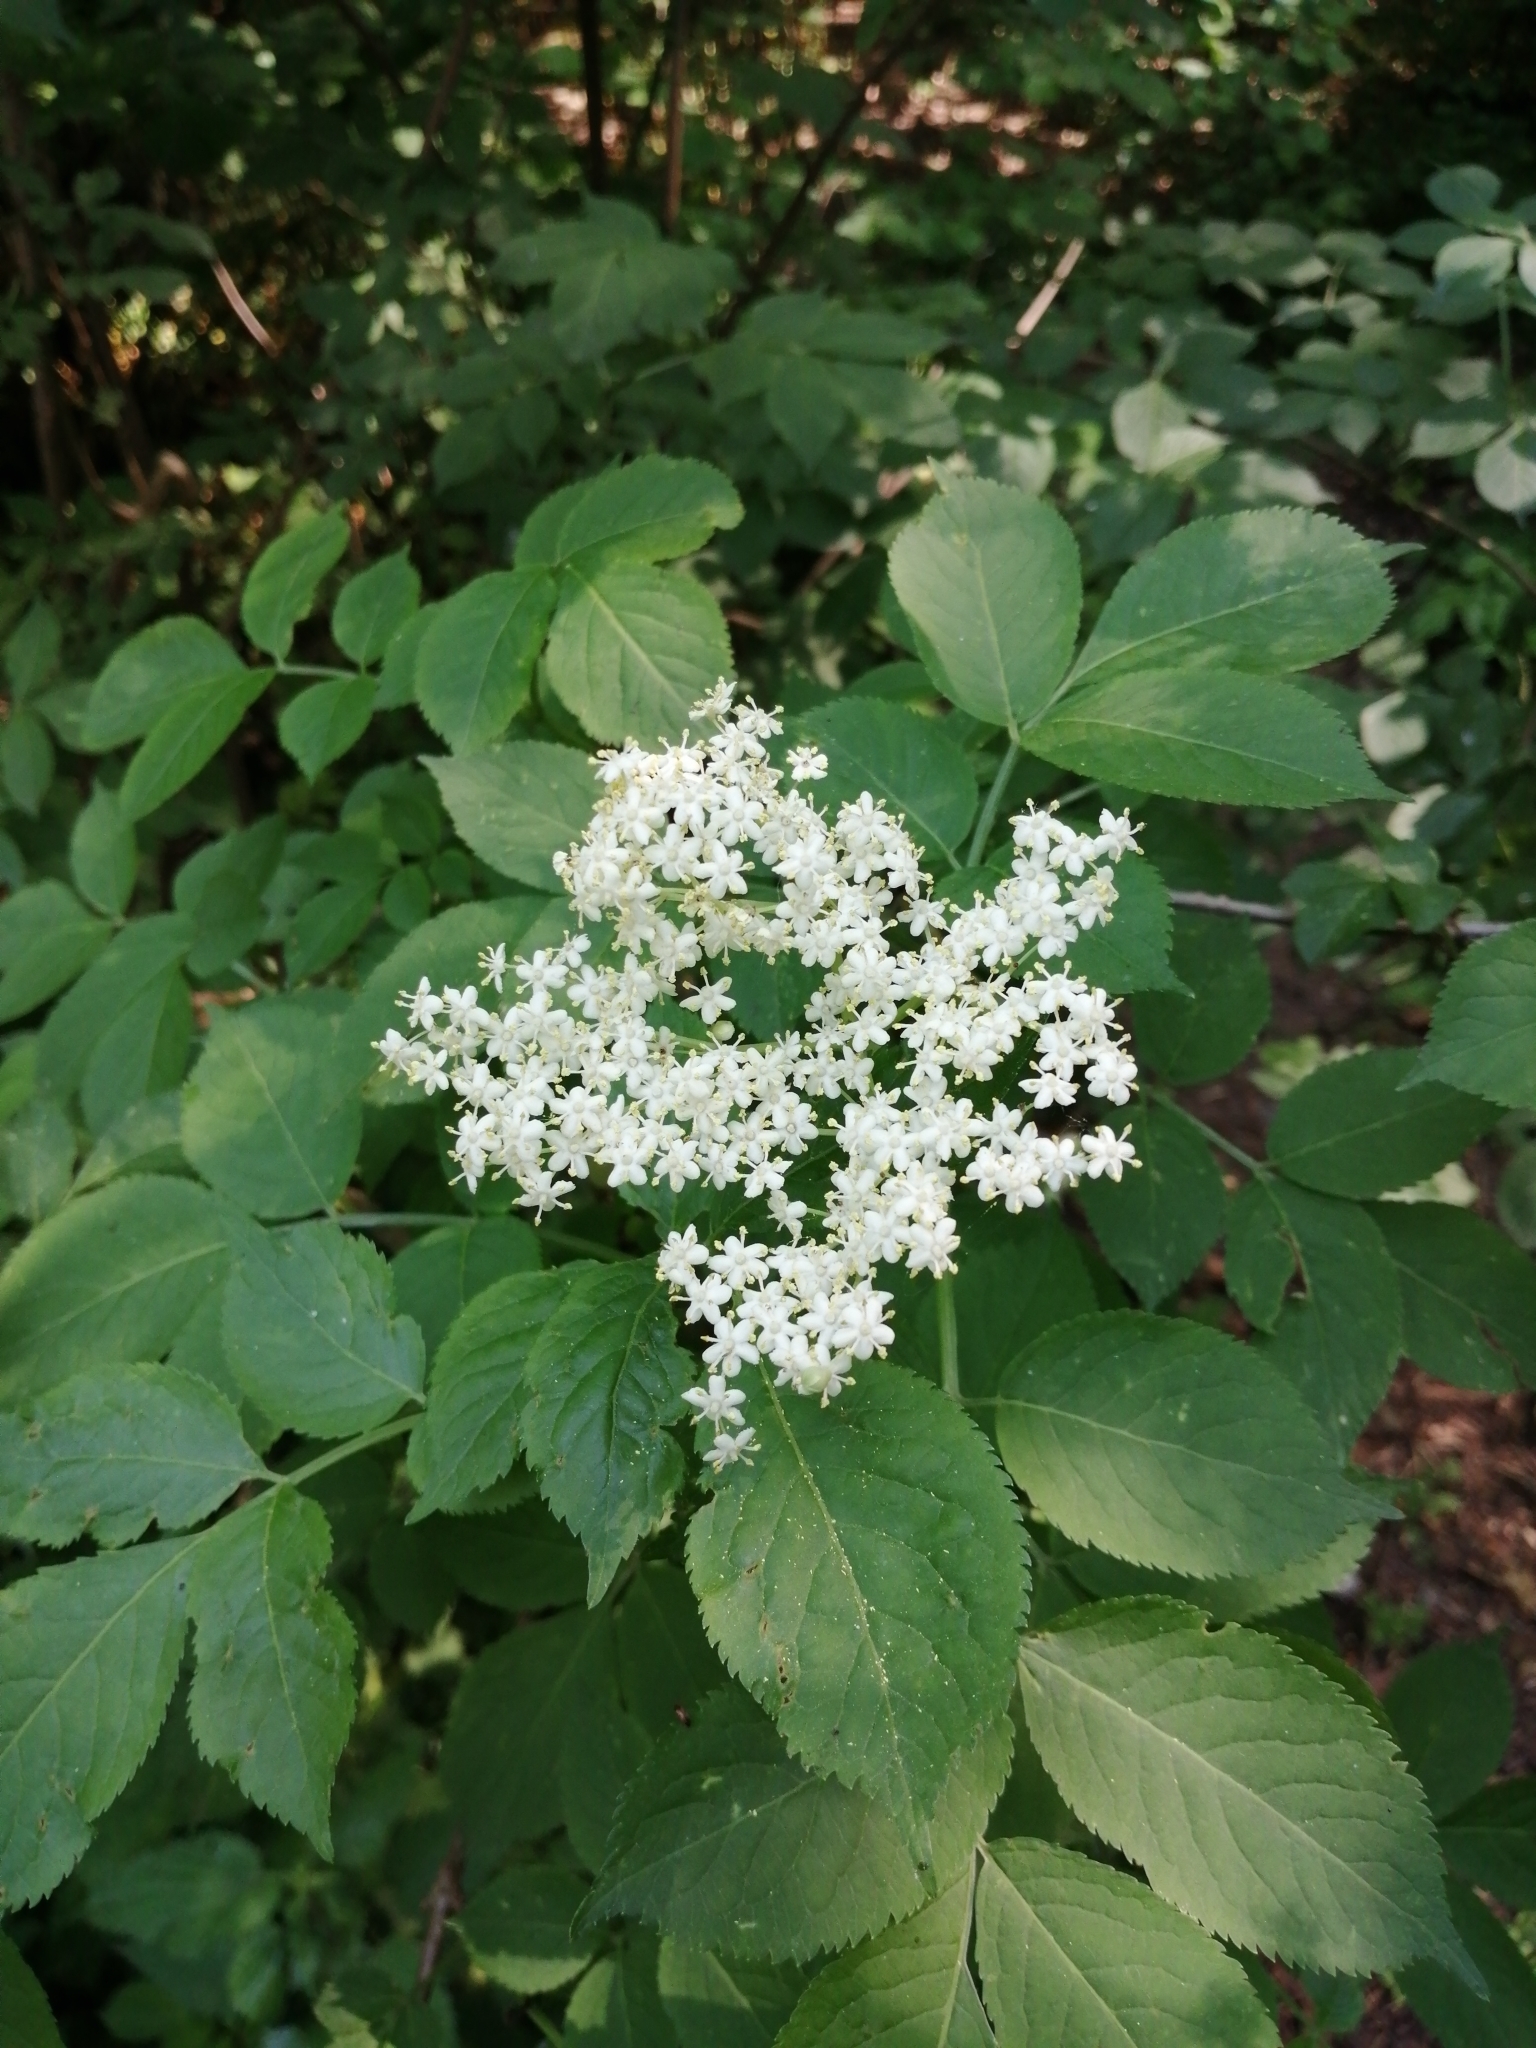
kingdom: Plantae
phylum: Tracheophyta
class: Magnoliopsida
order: Dipsacales
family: Viburnaceae
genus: Sambucus
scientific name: Sambucus nigra
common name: Elder
